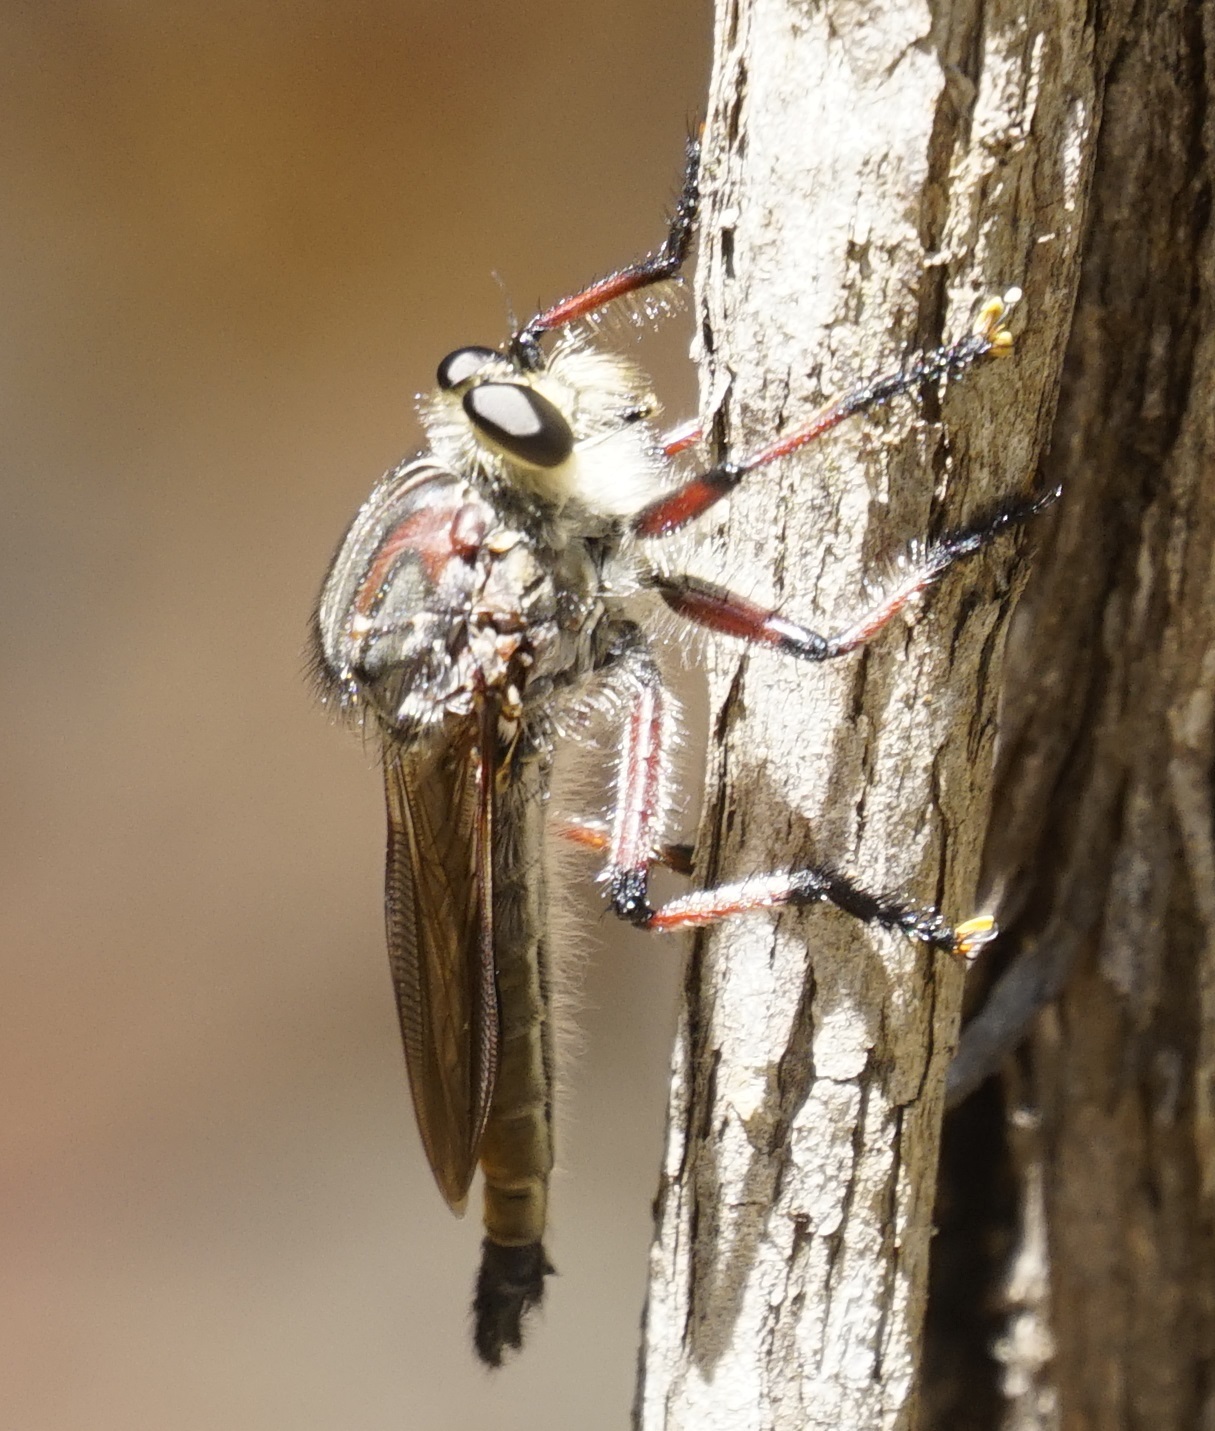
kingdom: Animalia
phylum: Arthropoda
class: Insecta
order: Diptera
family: Asilidae
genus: Neoaratus
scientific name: Neoaratus hercules
